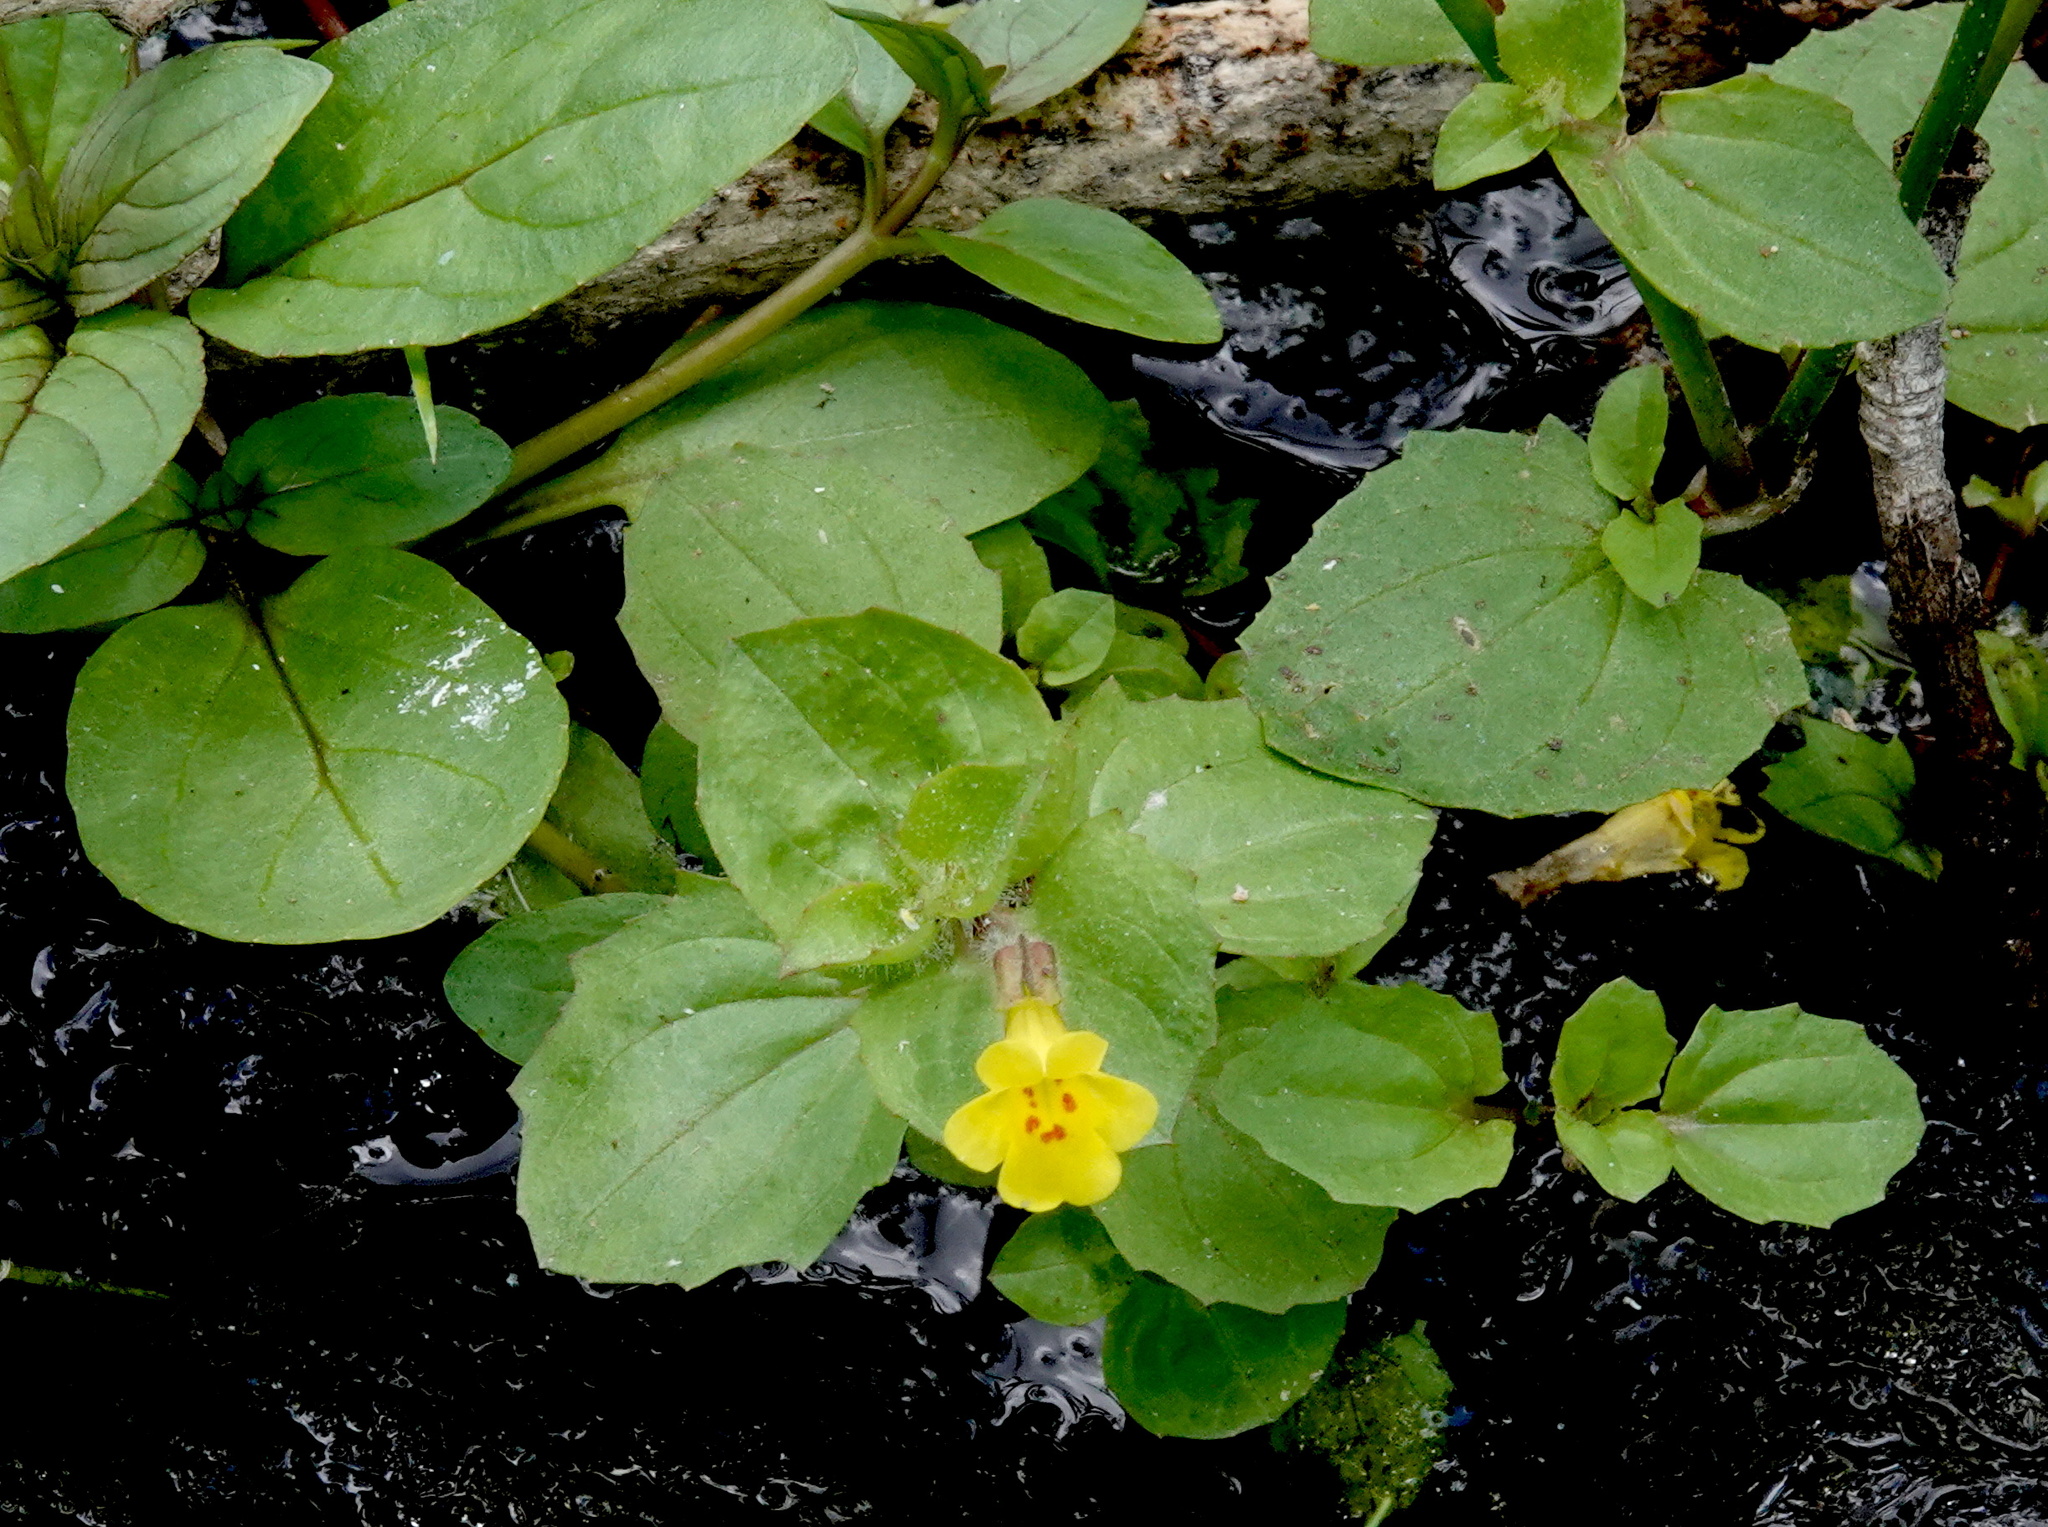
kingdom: Plantae
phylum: Tracheophyta
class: Magnoliopsida
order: Lamiales
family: Phrymaceae
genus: Erythranthe
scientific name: Erythranthe cordata
